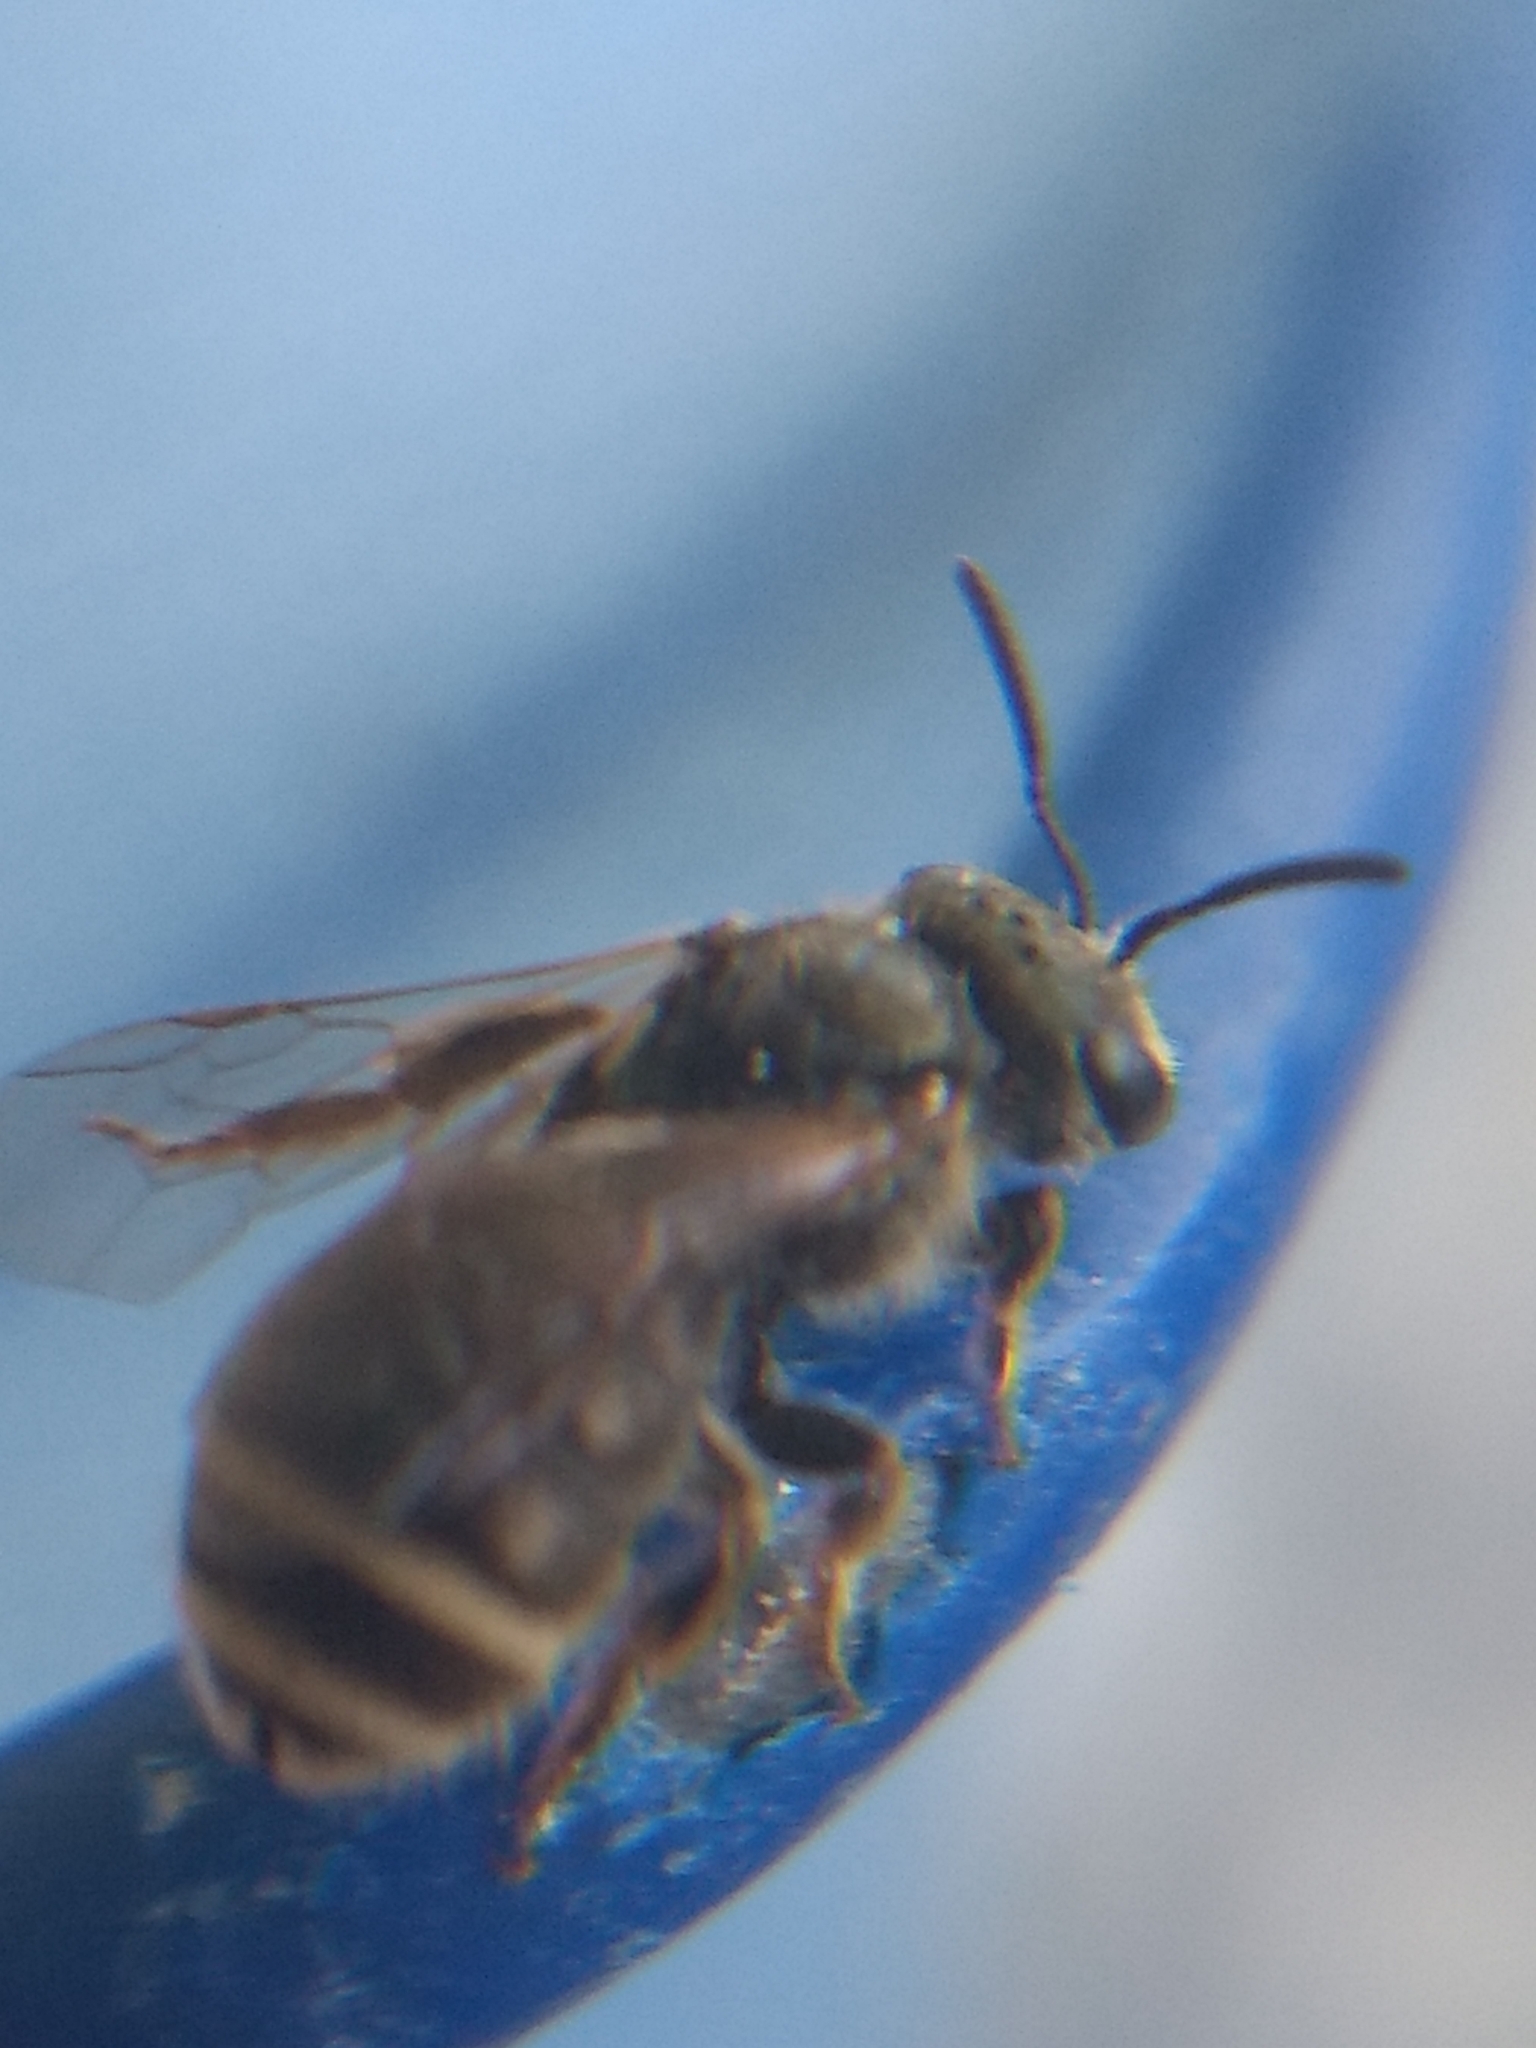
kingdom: Animalia
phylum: Arthropoda
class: Insecta
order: Hymenoptera
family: Halictidae
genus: Halictus
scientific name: Halictus tripartitus
